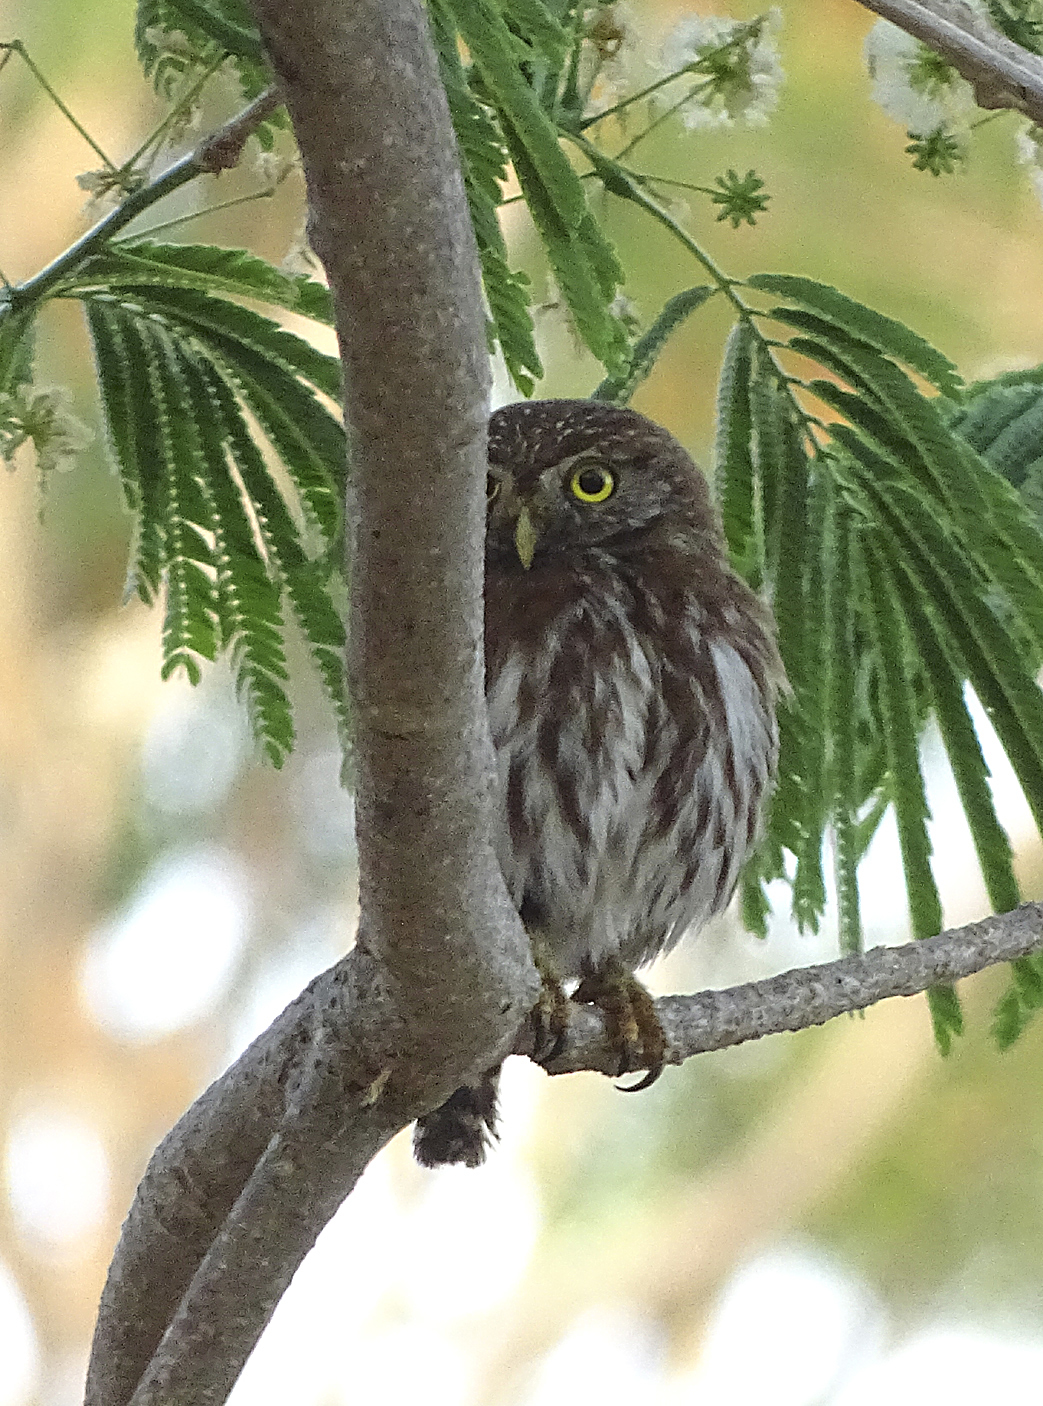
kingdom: Animalia
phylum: Chordata
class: Aves
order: Strigiformes
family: Strigidae
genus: Glaucidium
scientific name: Glaucidium brasilianum
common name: Ferruginous pygmy-owl
